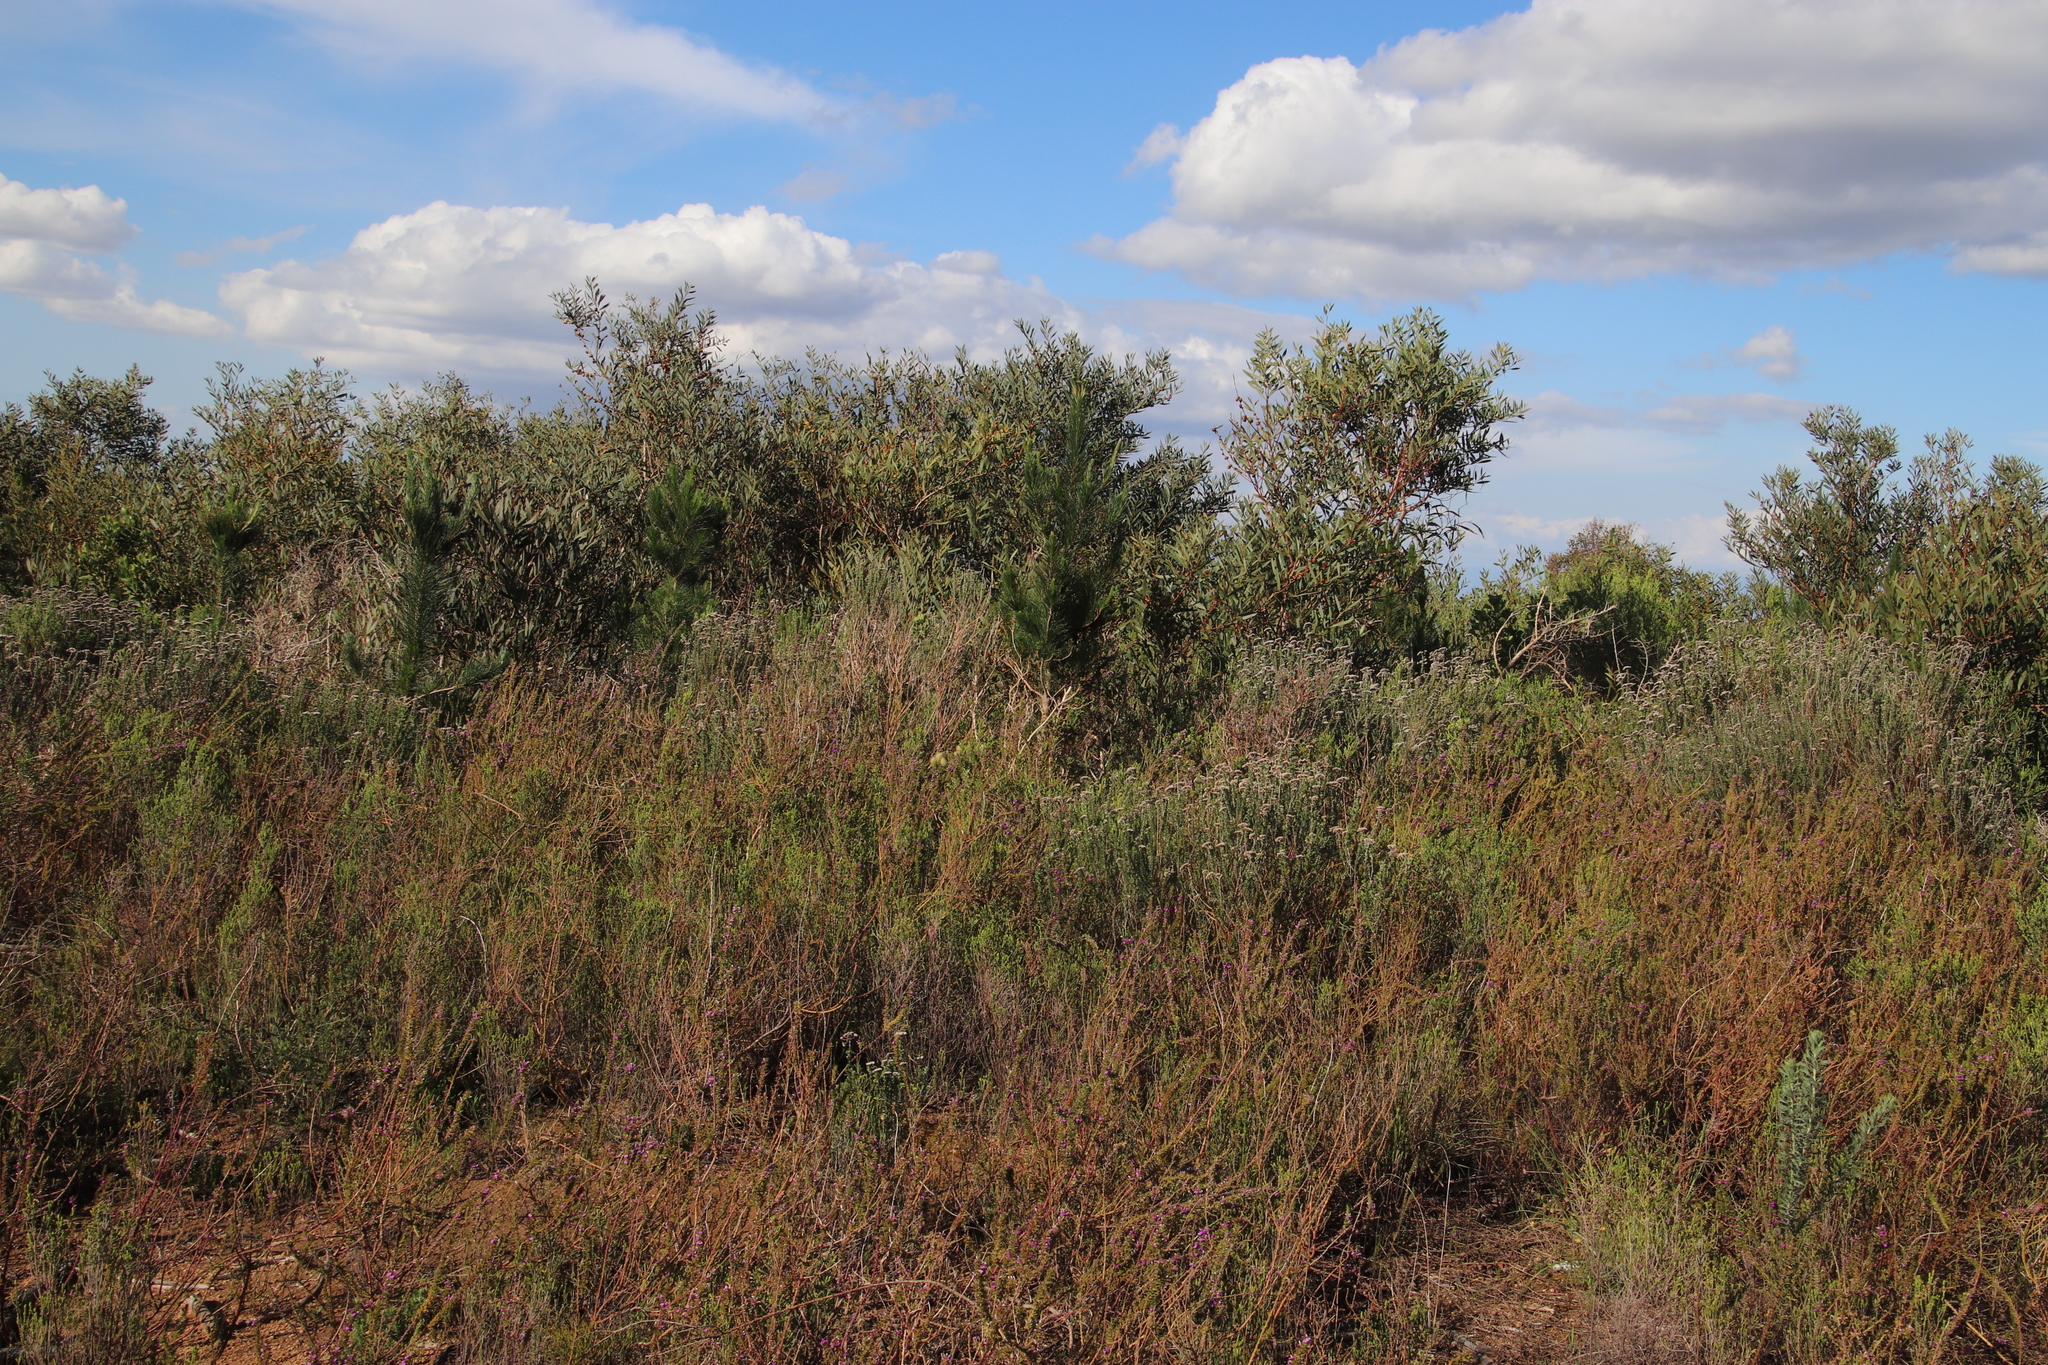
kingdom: Plantae
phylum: Tracheophyta
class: Magnoliopsida
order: Fabales
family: Fabaceae
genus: Acacia
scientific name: Acacia longifolia
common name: Sydney golden wattle
